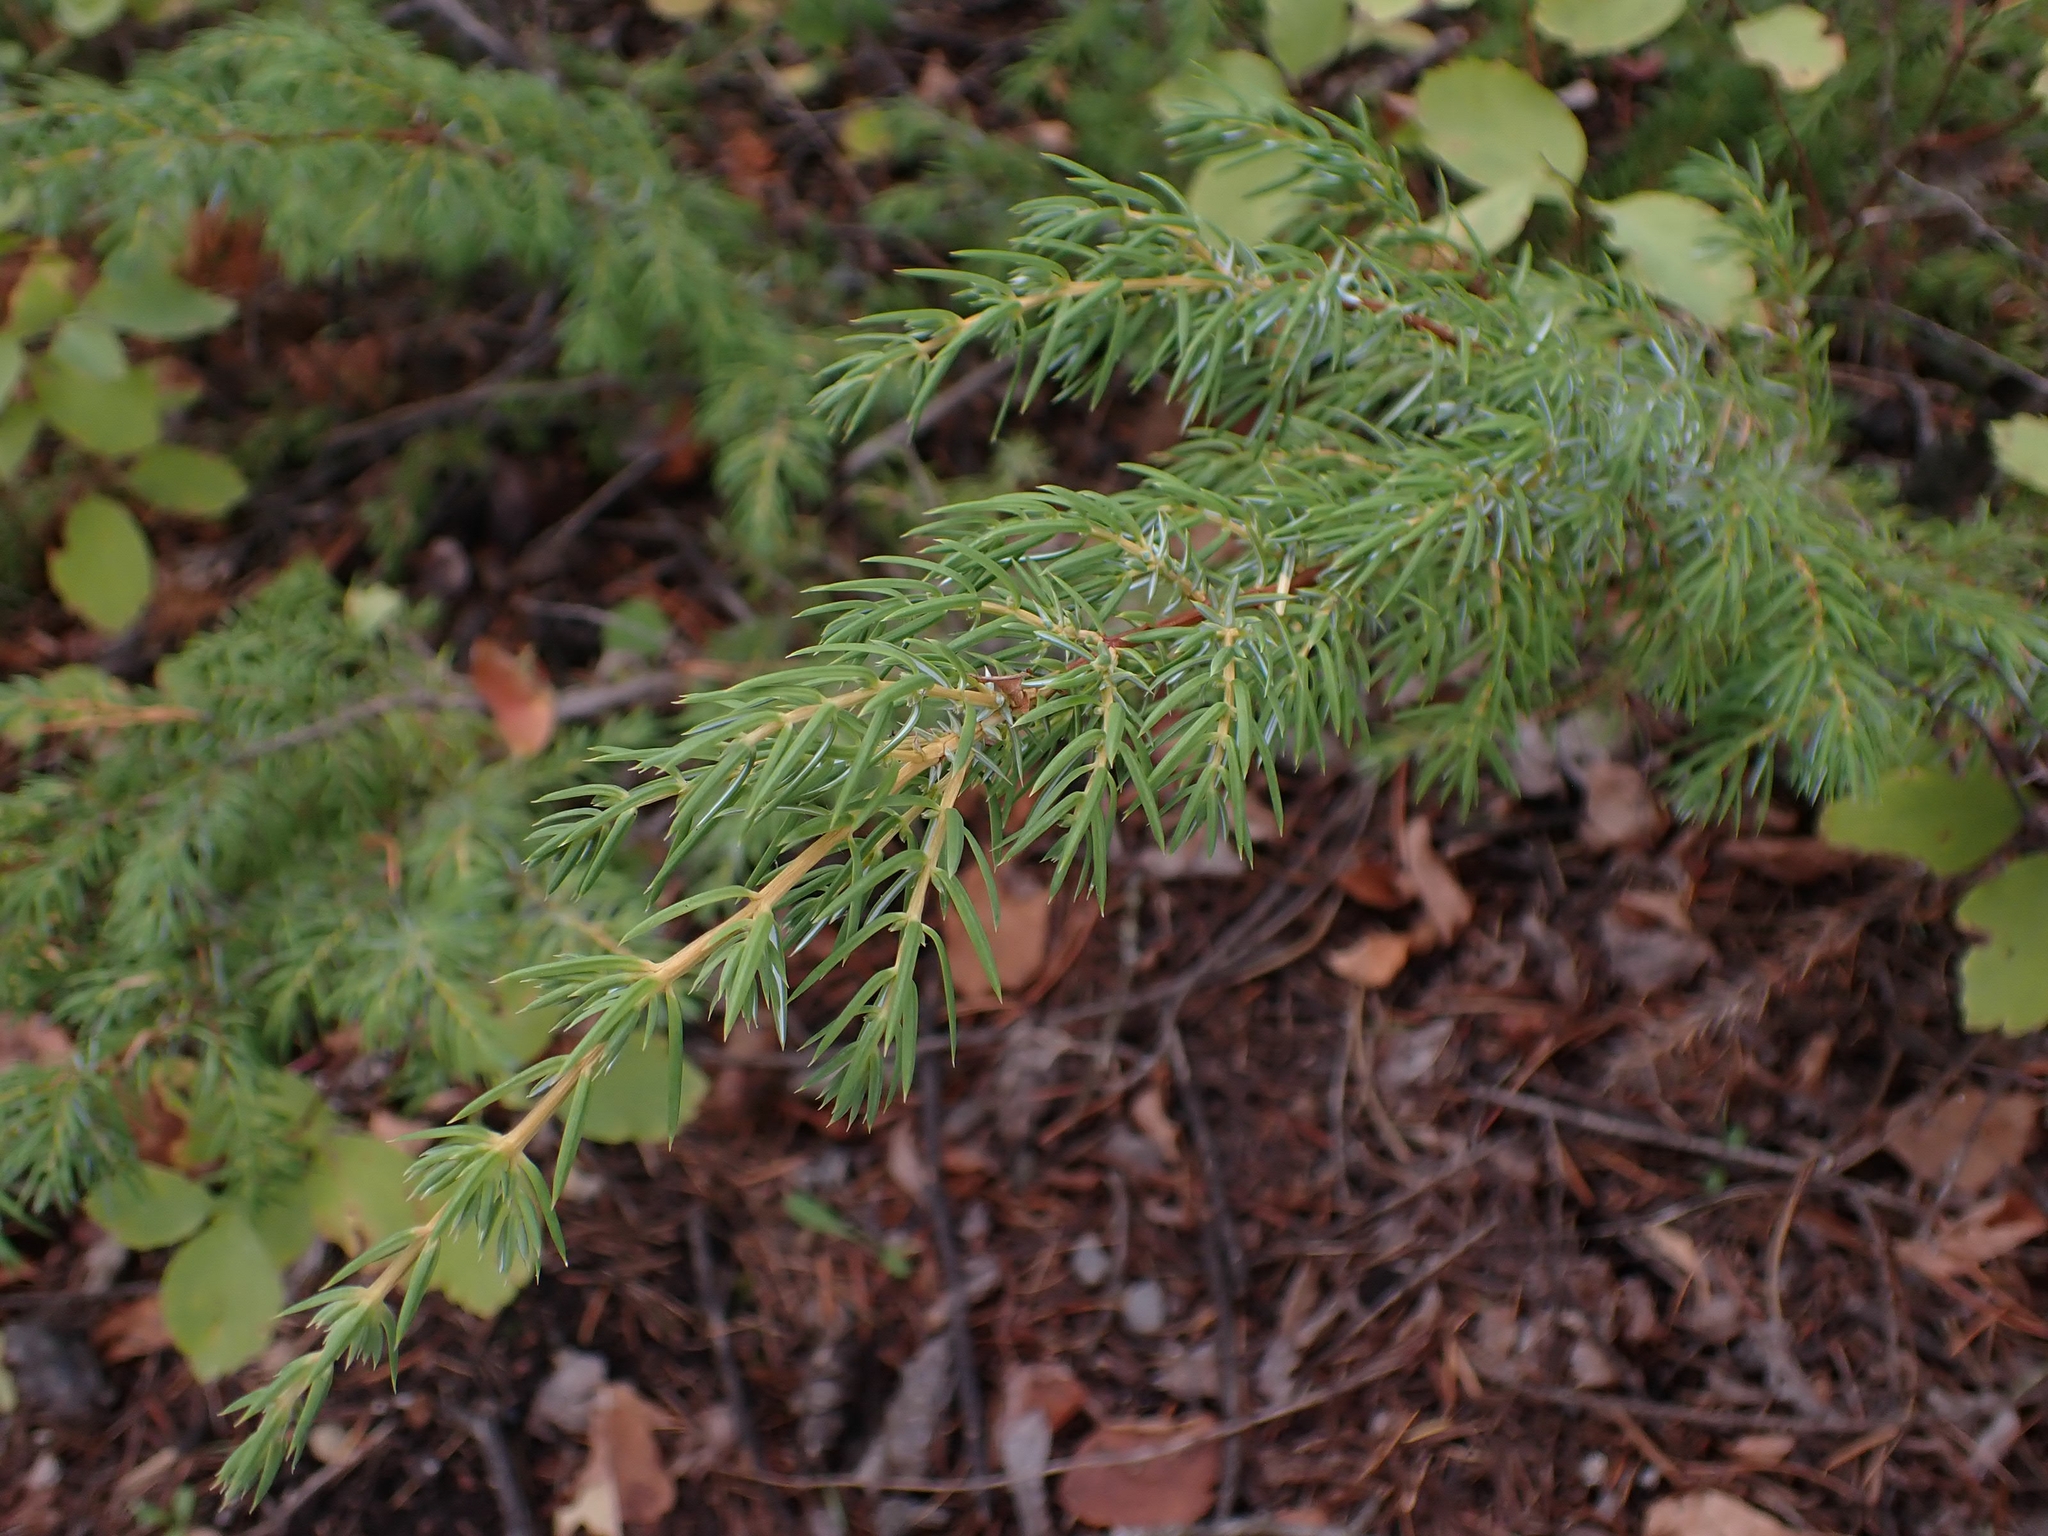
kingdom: Plantae
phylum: Tracheophyta
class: Pinopsida
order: Pinales
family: Cupressaceae
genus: Juniperus
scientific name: Juniperus communis
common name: Common juniper
